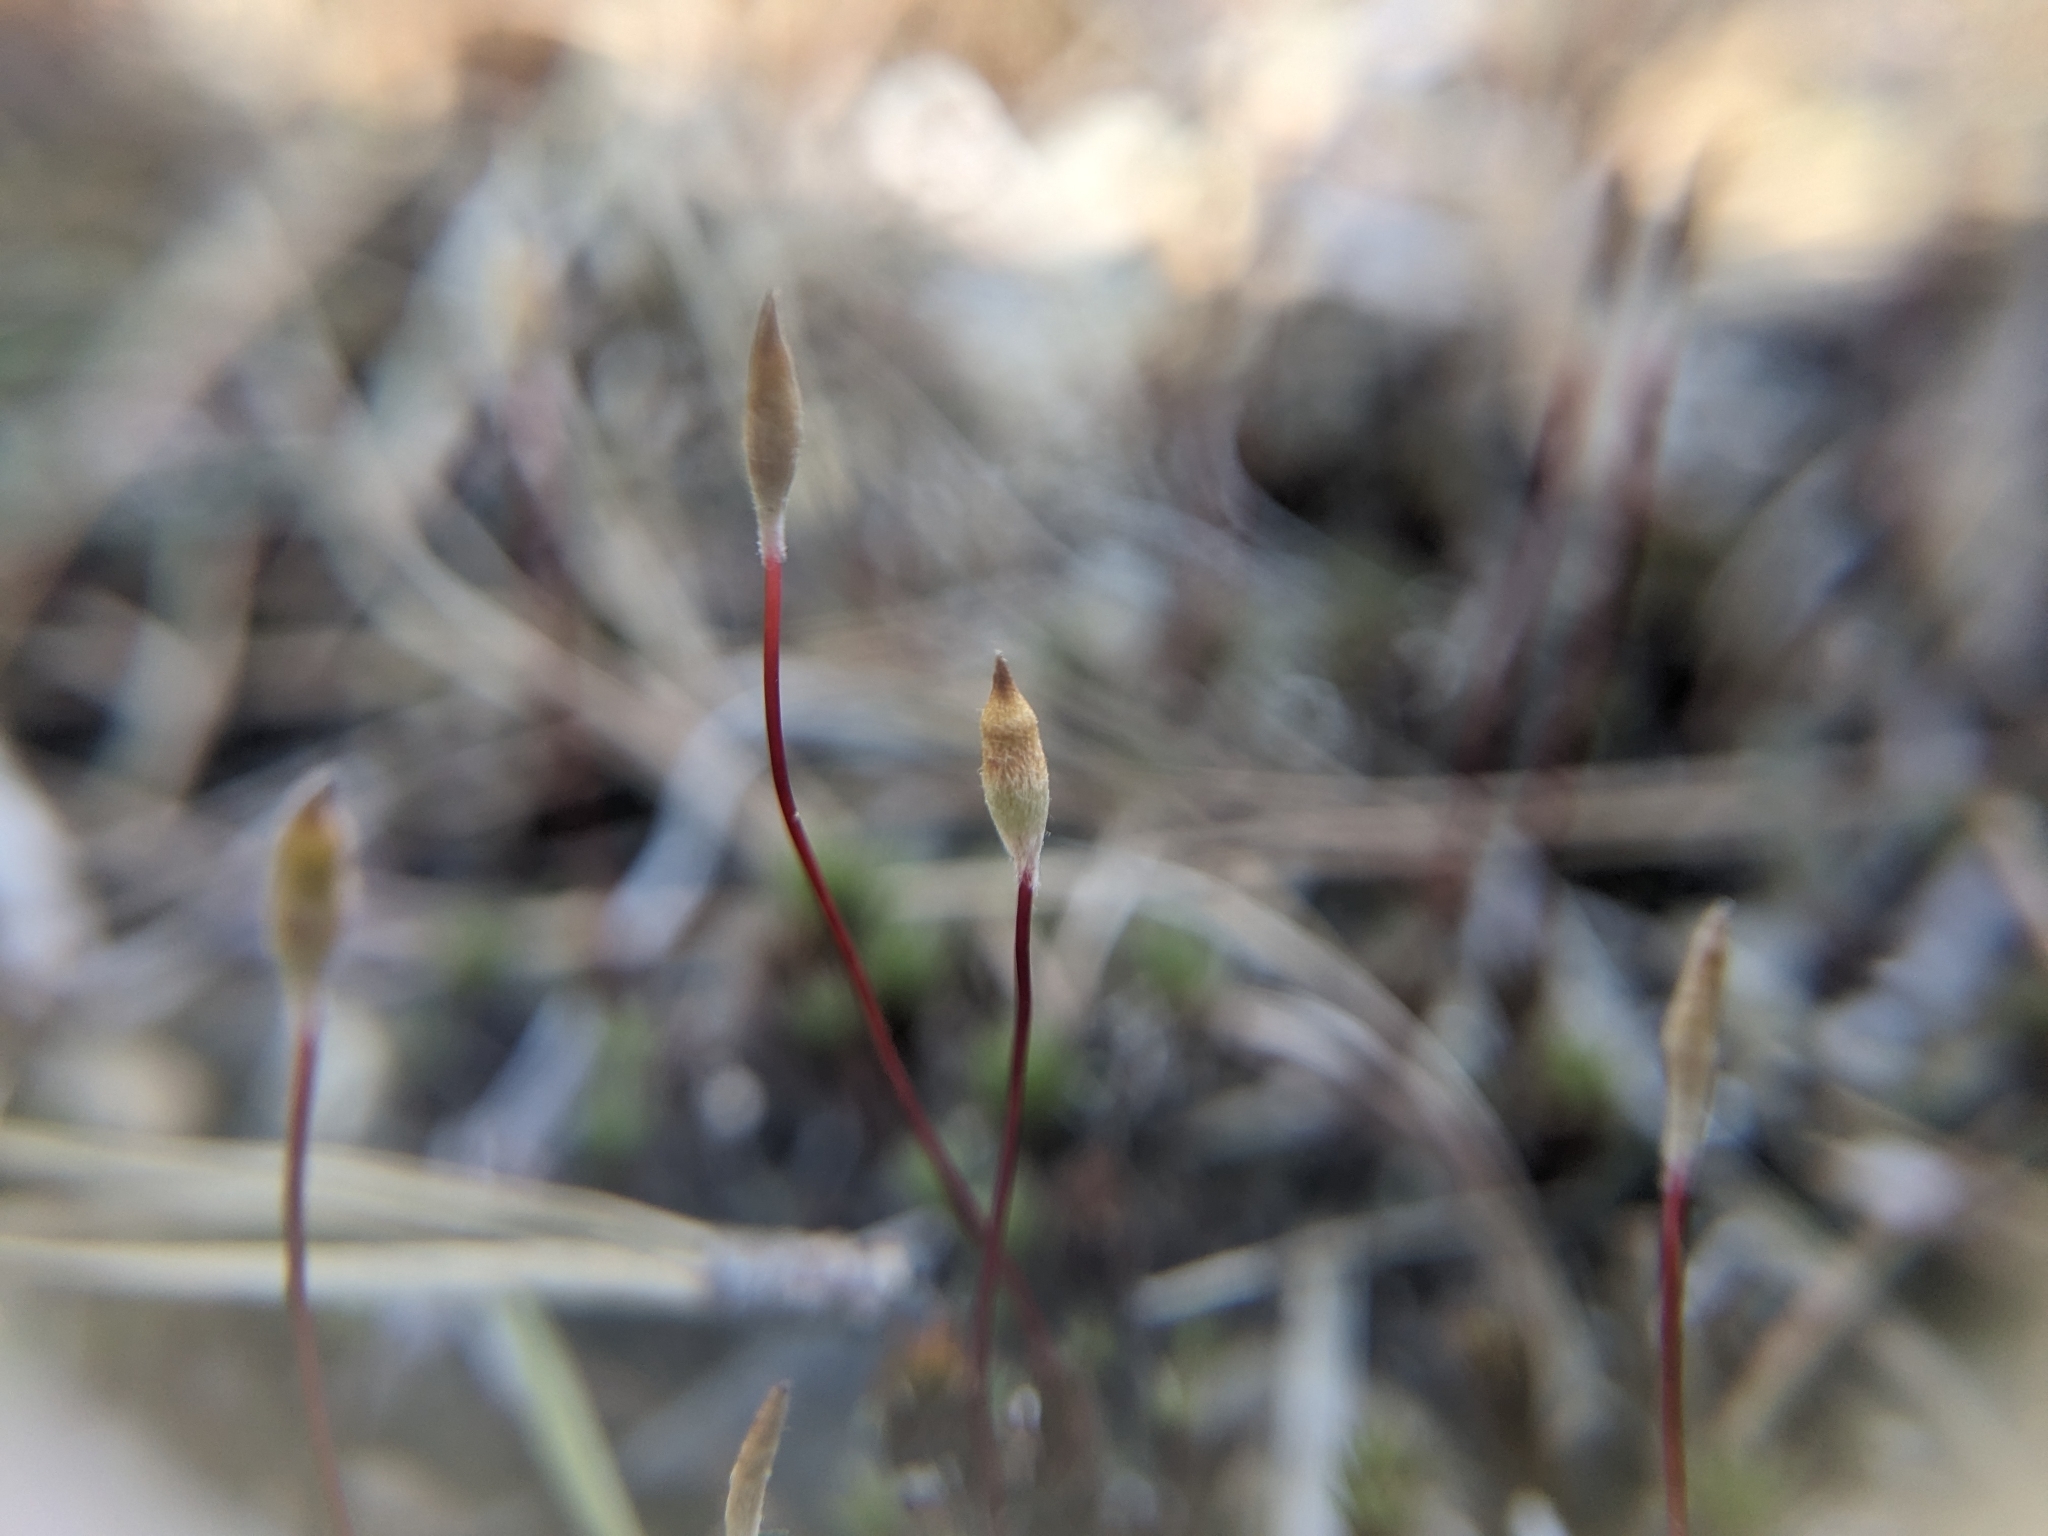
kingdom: Plantae
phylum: Bryophyta
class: Polytrichopsida
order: Polytrichales
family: Polytrichaceae
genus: Polytrichum
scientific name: Polytrichum piliferum
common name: Bristly haircap
